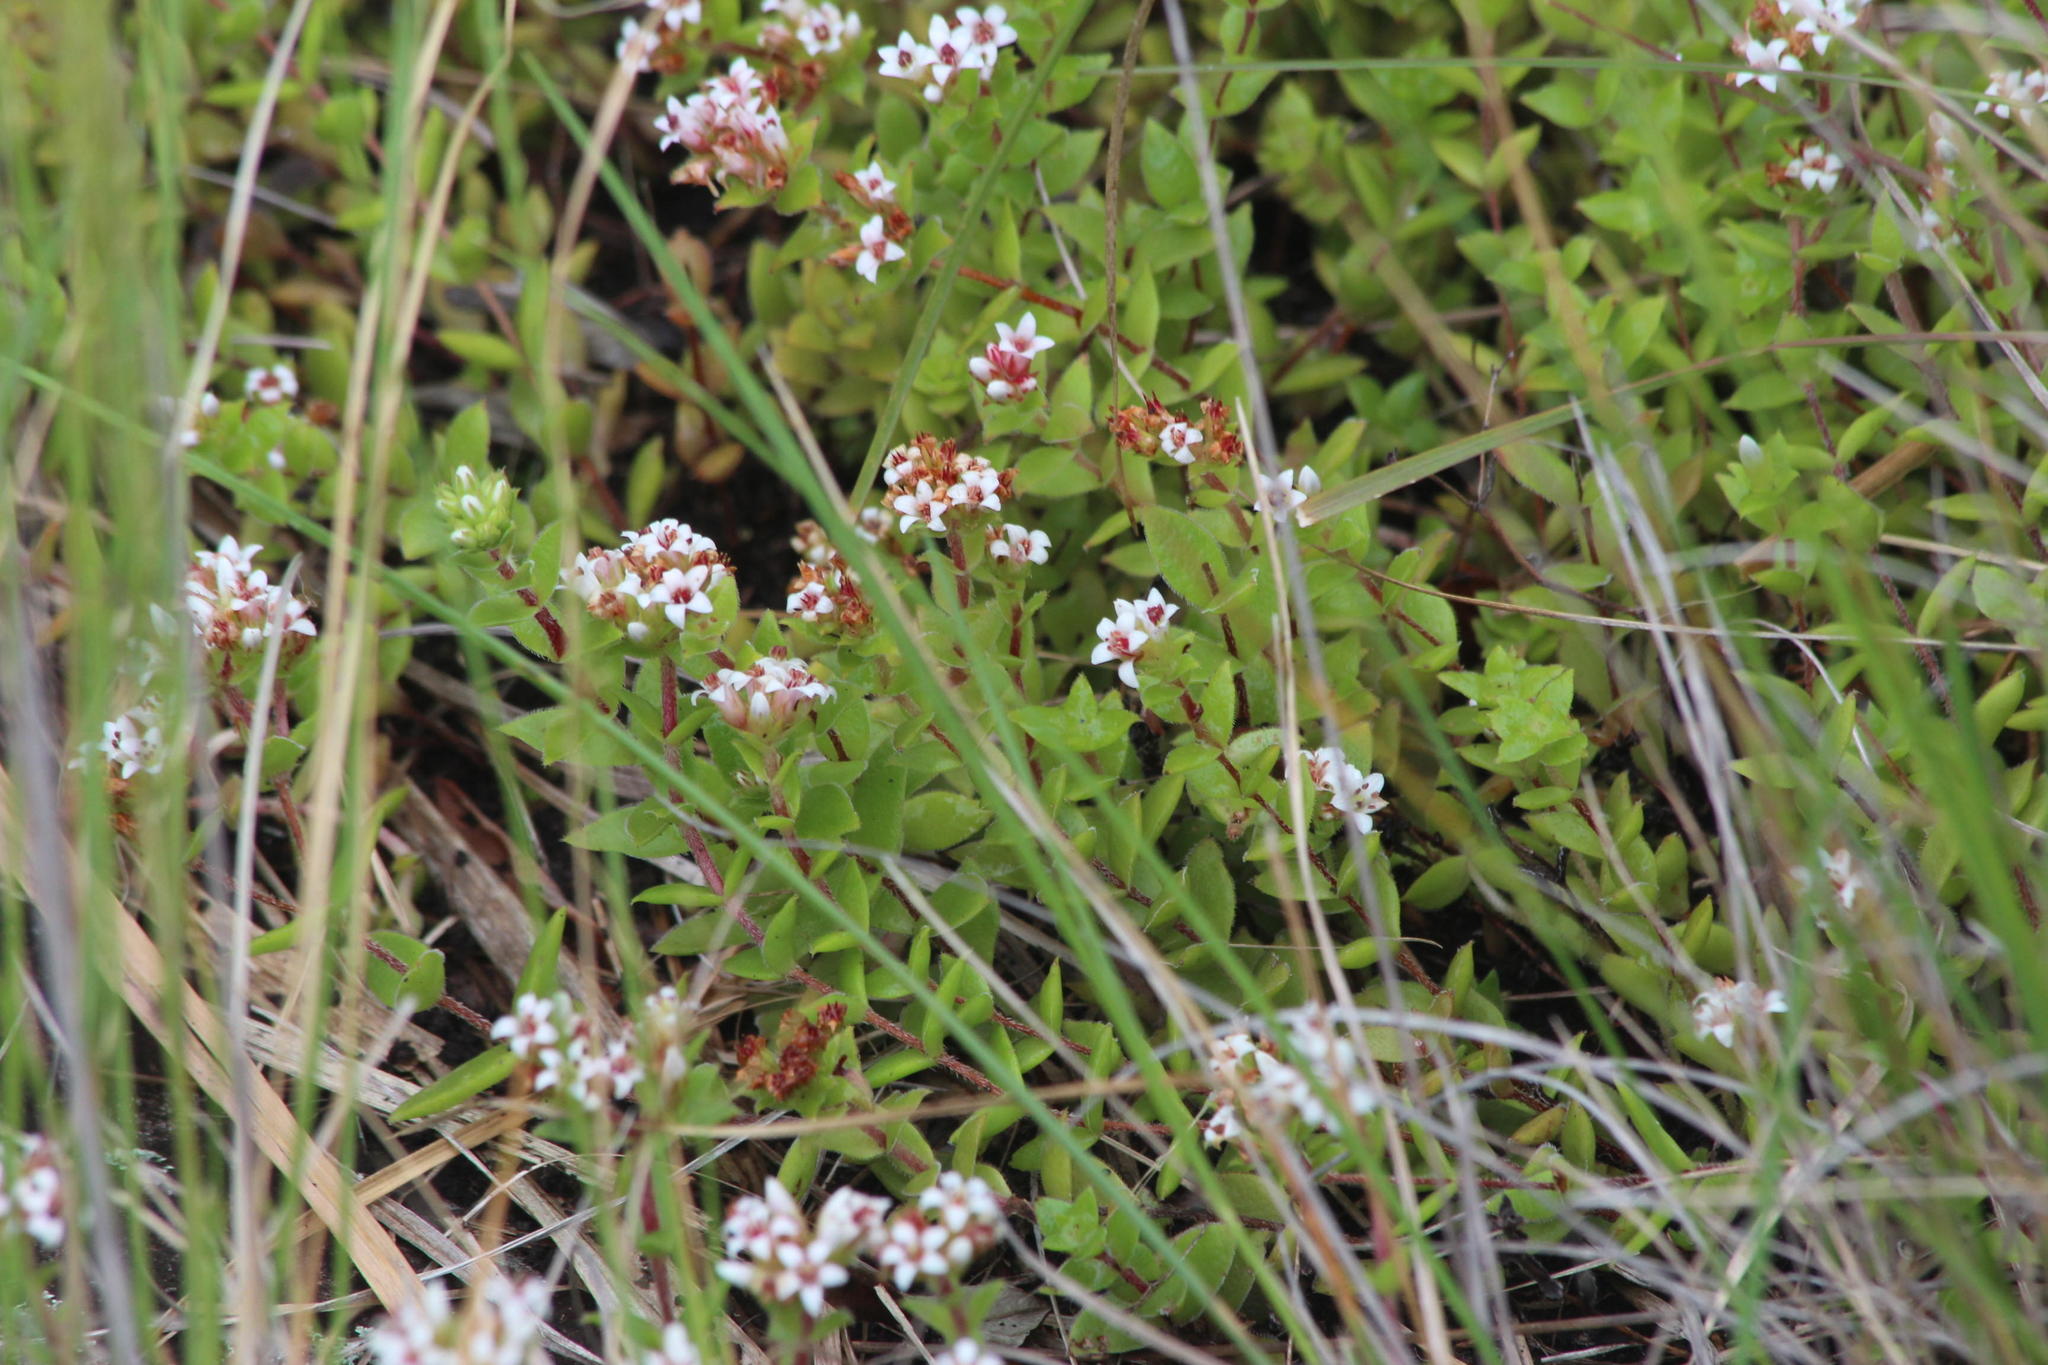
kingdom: Plantae
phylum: Tracheophyta
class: Magnoliopsida
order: Saxifragales
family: Crassulaceae
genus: Crassula
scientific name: Crassula obovata
